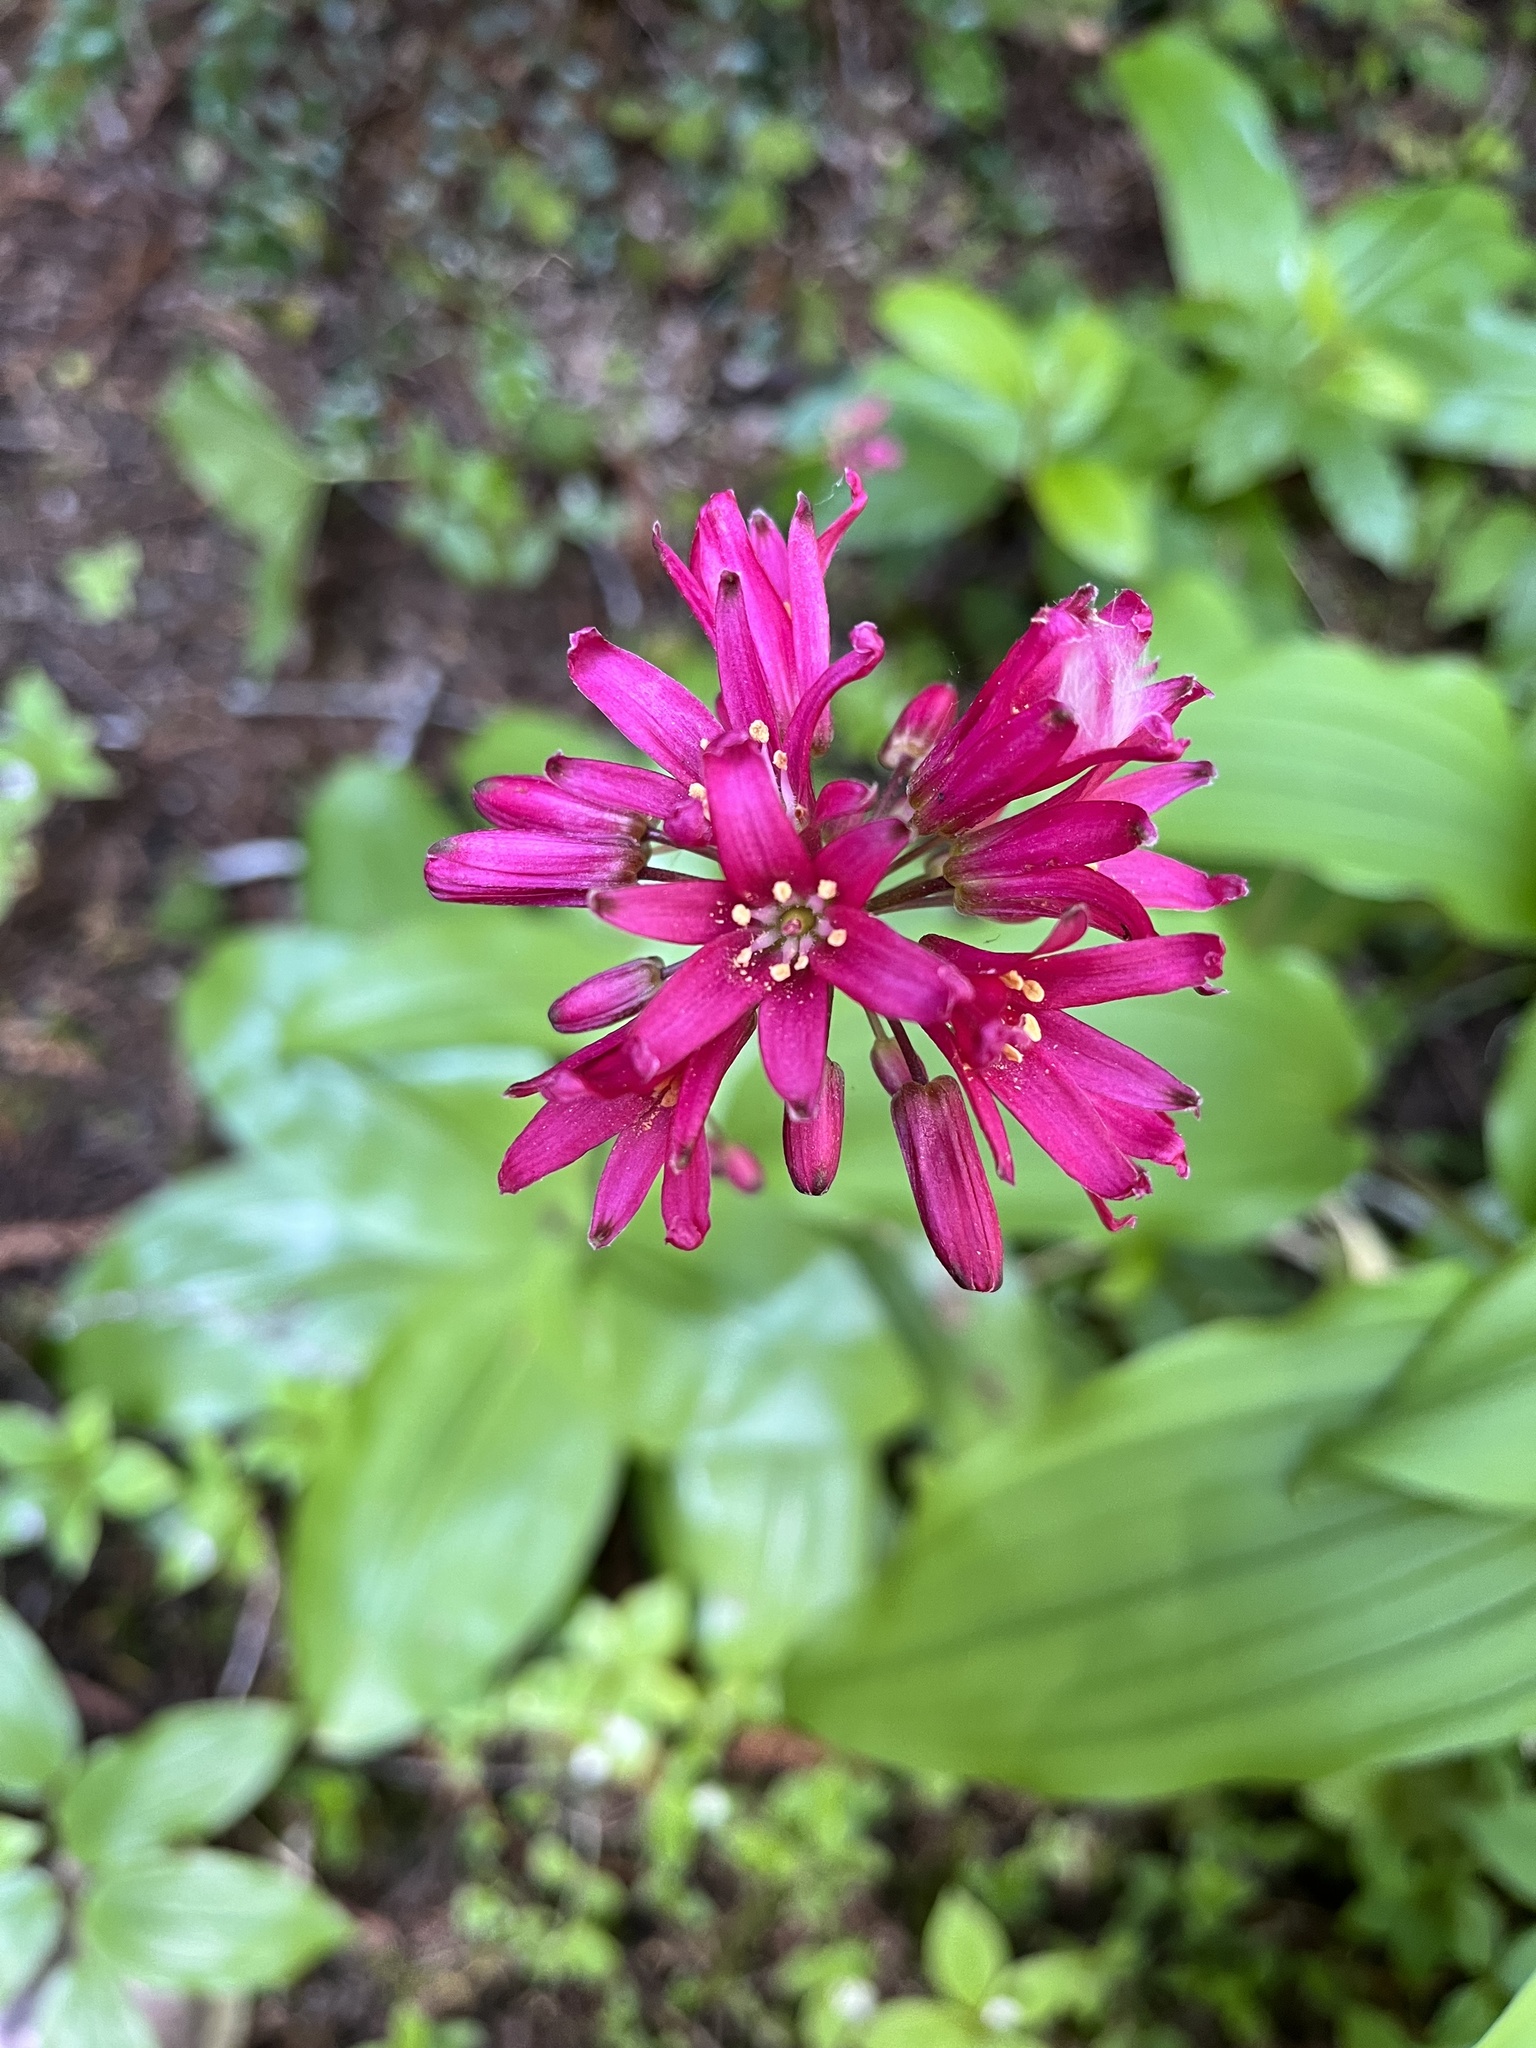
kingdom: Plantae
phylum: Tracheophyta
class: Liliopsida
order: Liliales
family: Liliaceae
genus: Clintonia
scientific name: Clintonia andrewsiana
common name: Red clintonia
